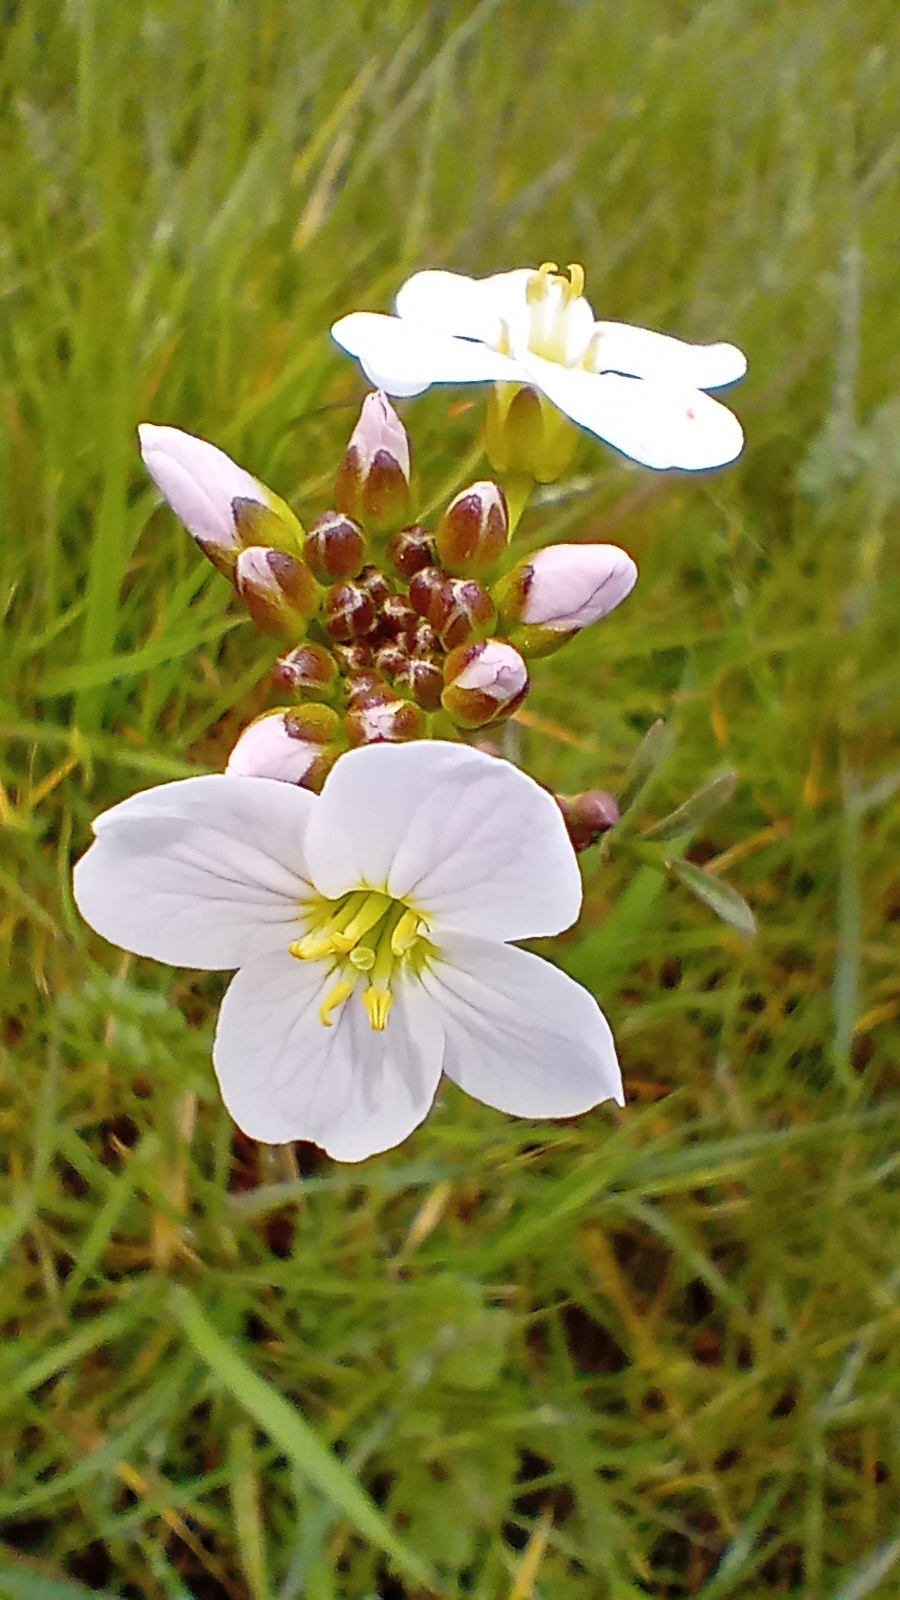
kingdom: Plantae
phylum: Tracheophyta
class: Magnoliopsida
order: Brassicales
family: Brassicaceae
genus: Cardamine
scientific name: Cardamine pratensis
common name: Cuckoo flower
